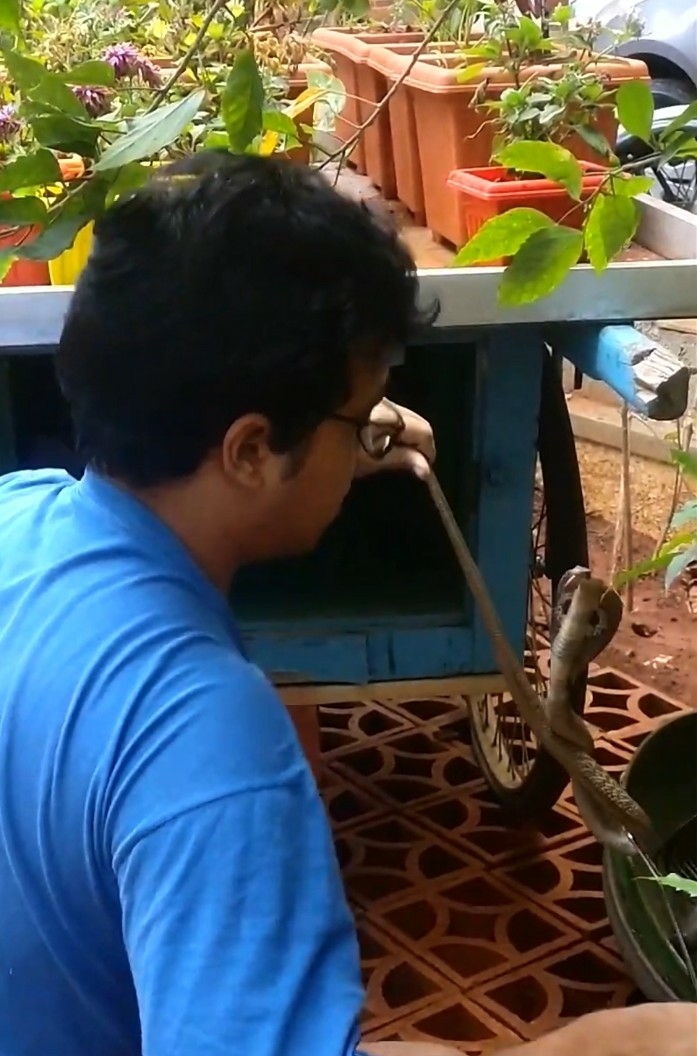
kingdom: Animalia
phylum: Chordata
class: Squamata
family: Elapidae
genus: Naja
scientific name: Naja naja
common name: Indian cobra
